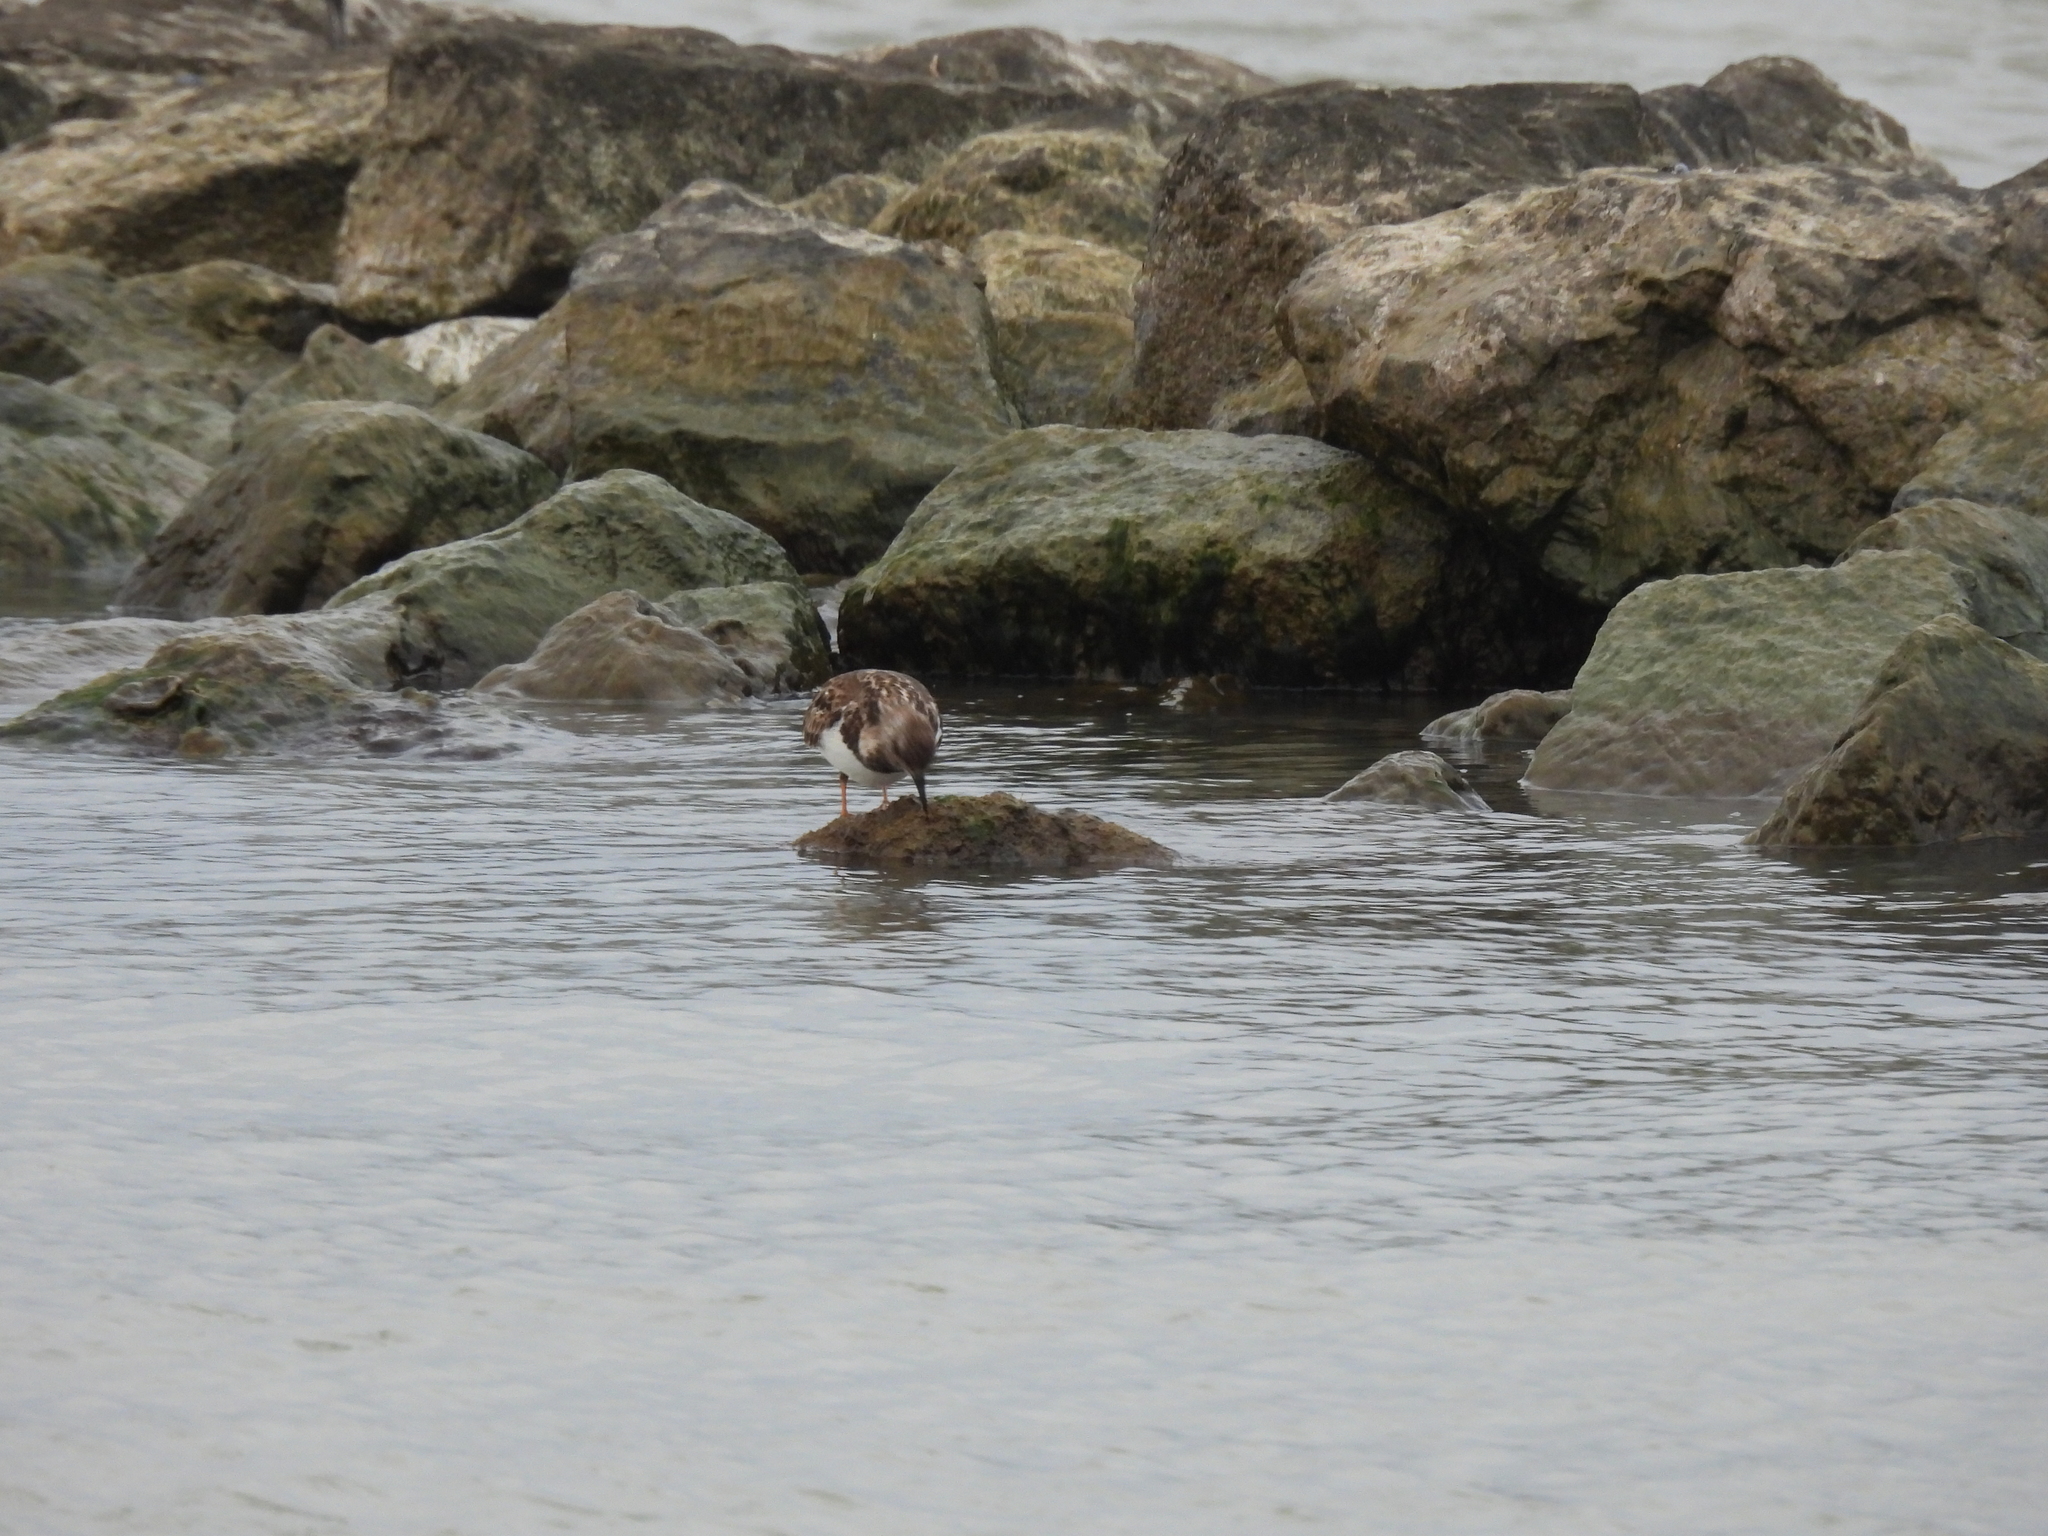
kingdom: Animalia
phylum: Chordata
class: Aves
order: Charadriiformes
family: Scolopacidae
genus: Arenaria
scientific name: Arenaria interpres
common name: Ruddy turnstone
